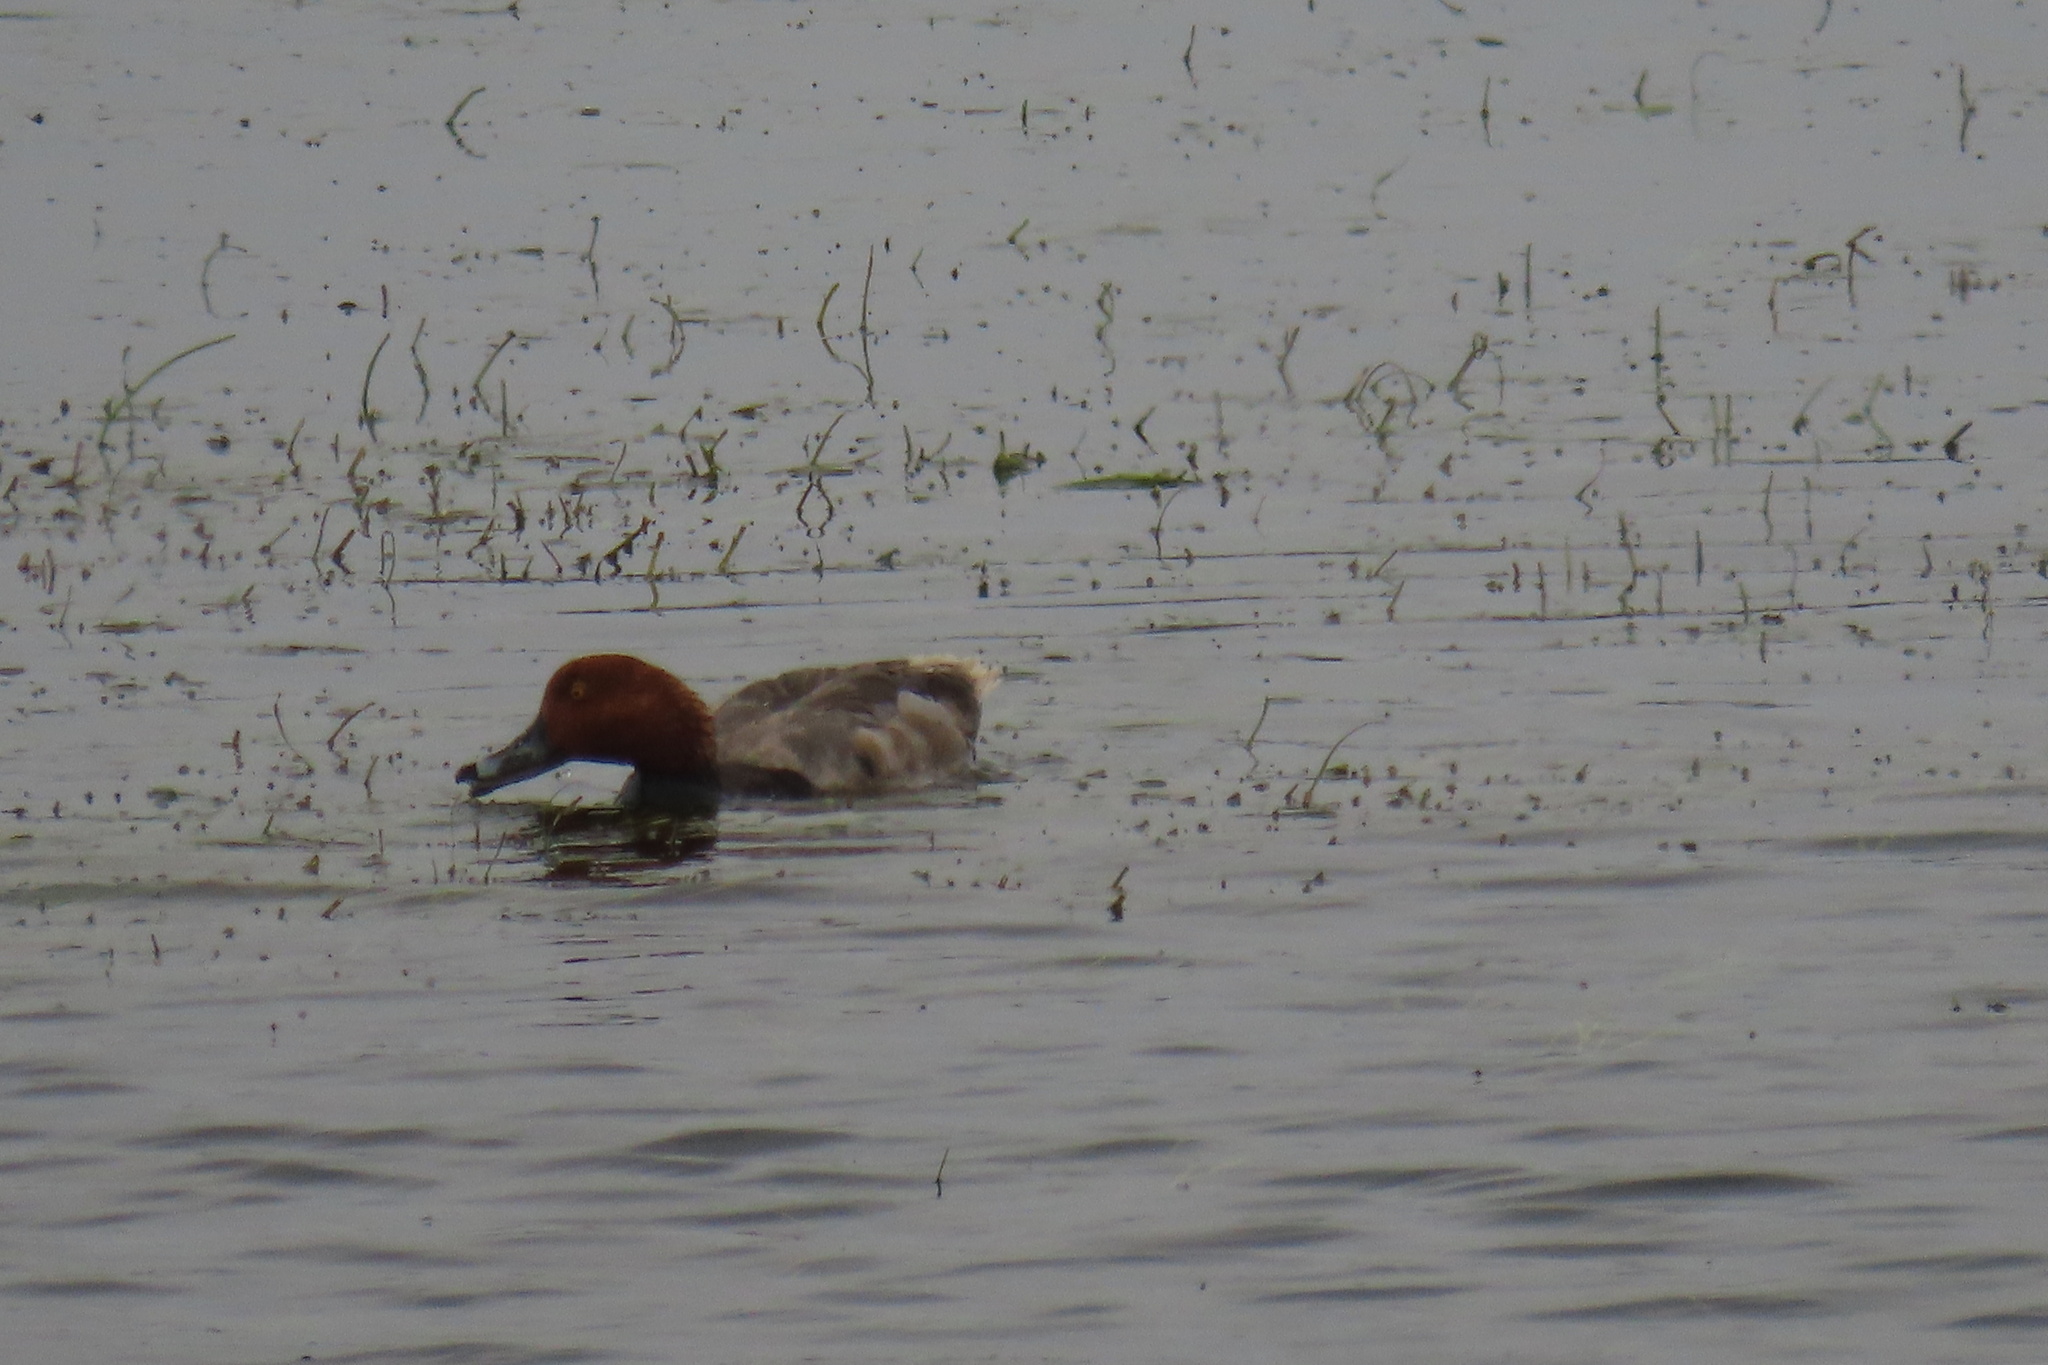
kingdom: Animalia
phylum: Chordata
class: Aves
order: Anseriformes
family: Anatidae
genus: Aythya
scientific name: Aythya americana
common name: Redhead
